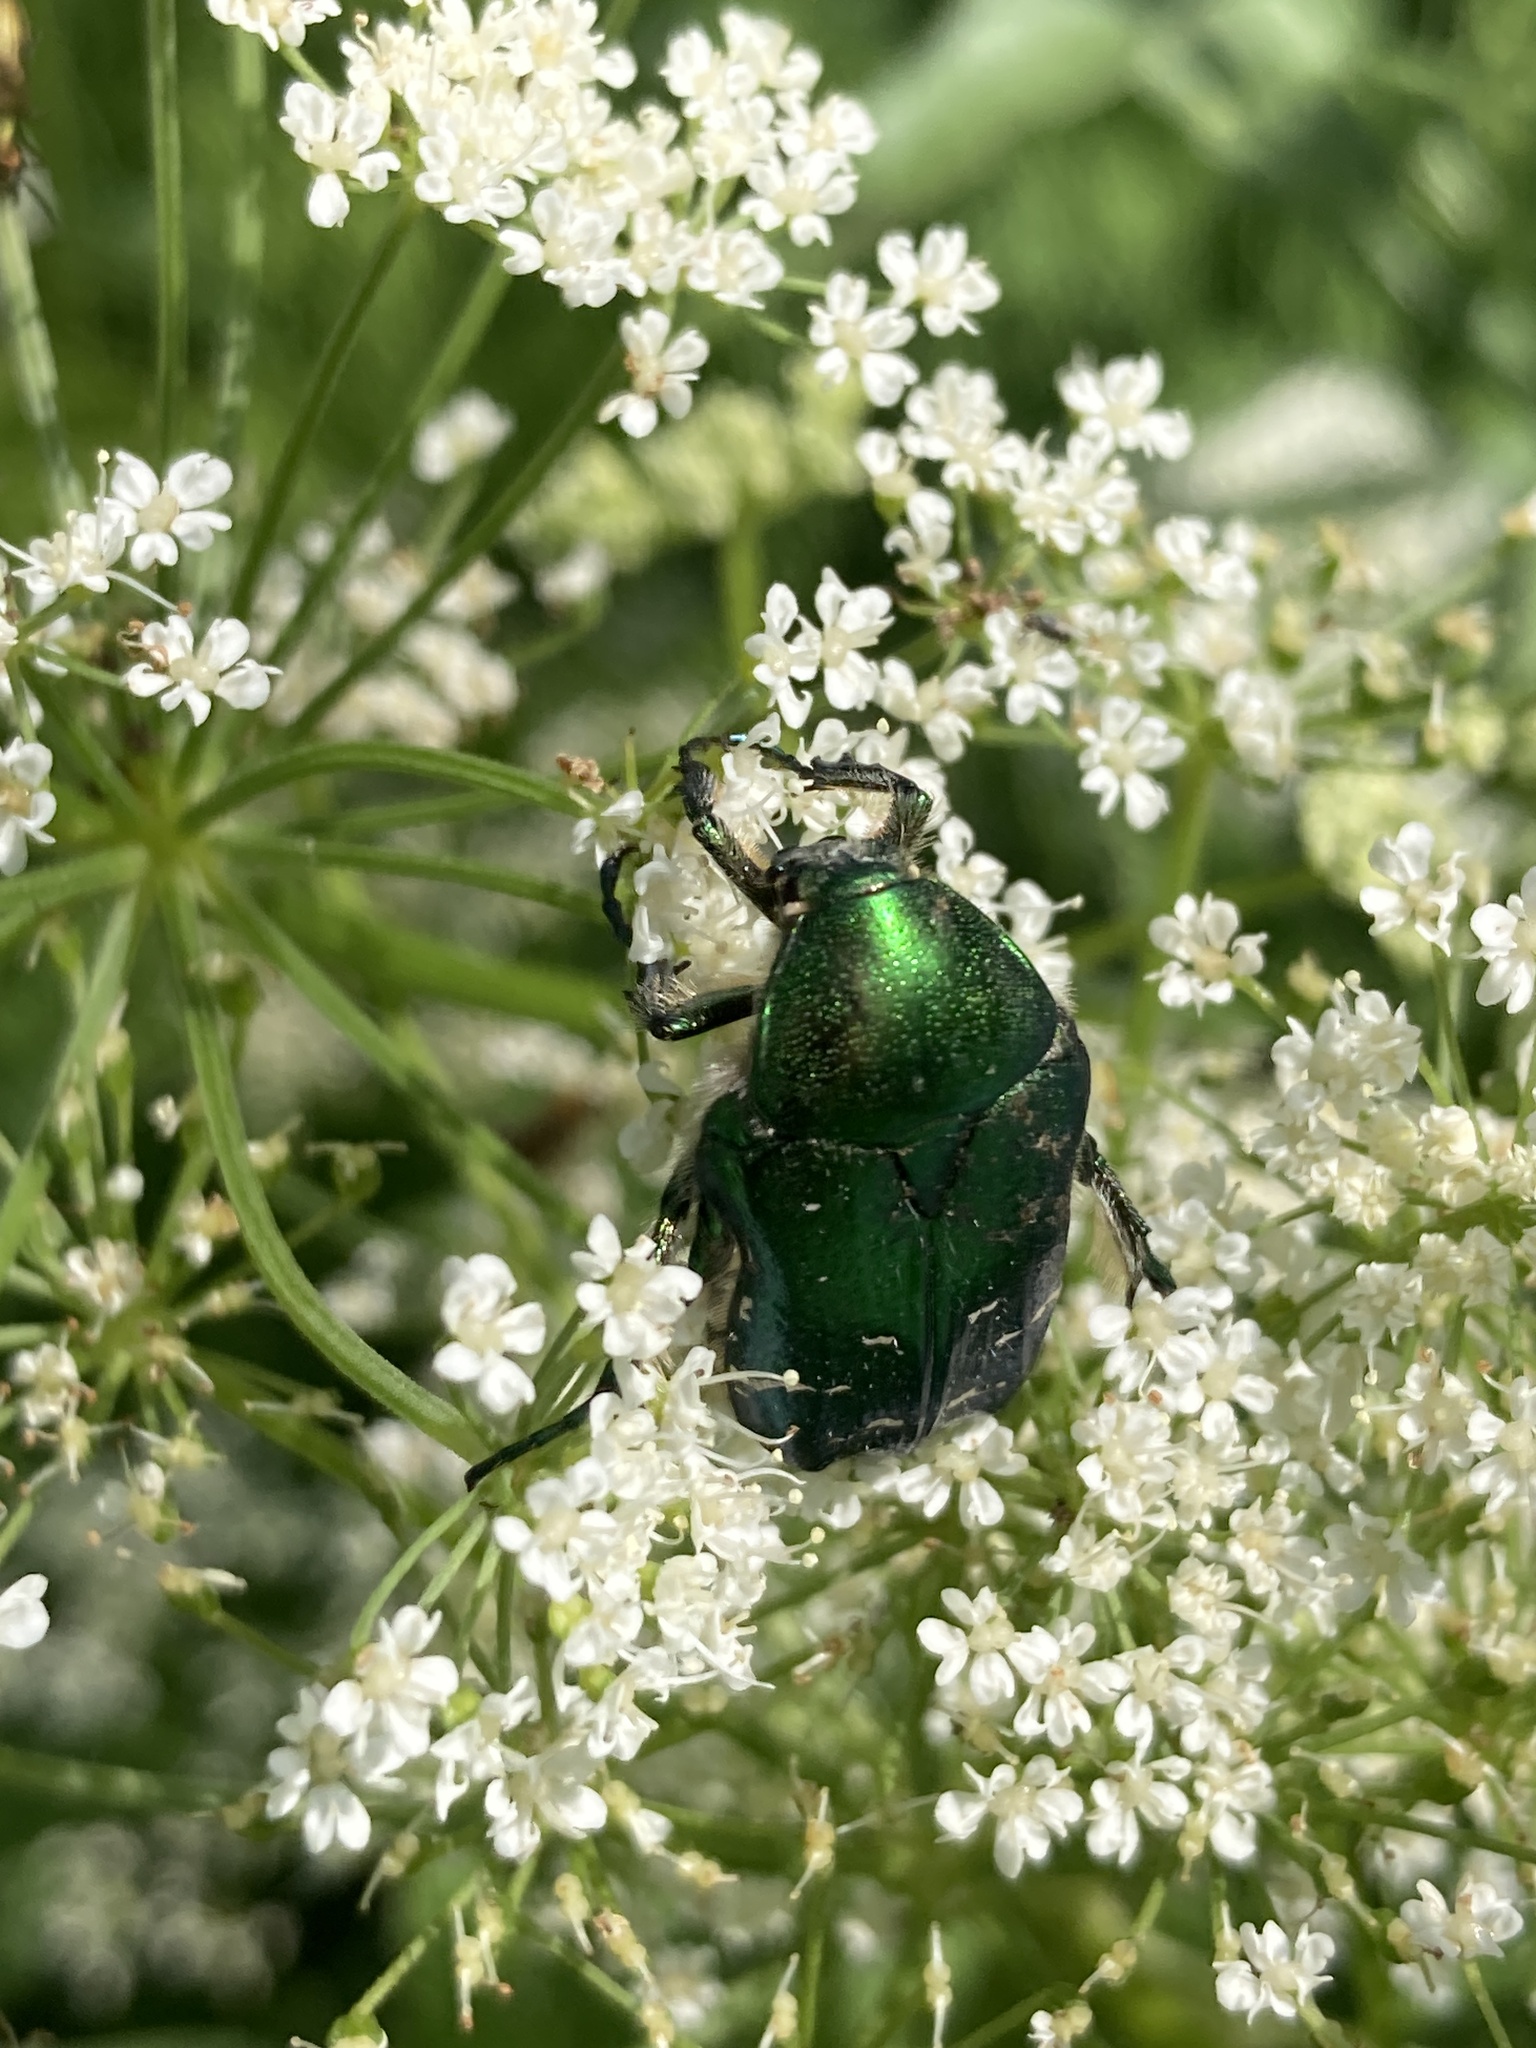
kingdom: Animalia
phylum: Arthropoda
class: Insecta
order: Coleoptera
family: Scarabaeidae
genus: Cetonia
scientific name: Cetonia aurata
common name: Rose chafer
